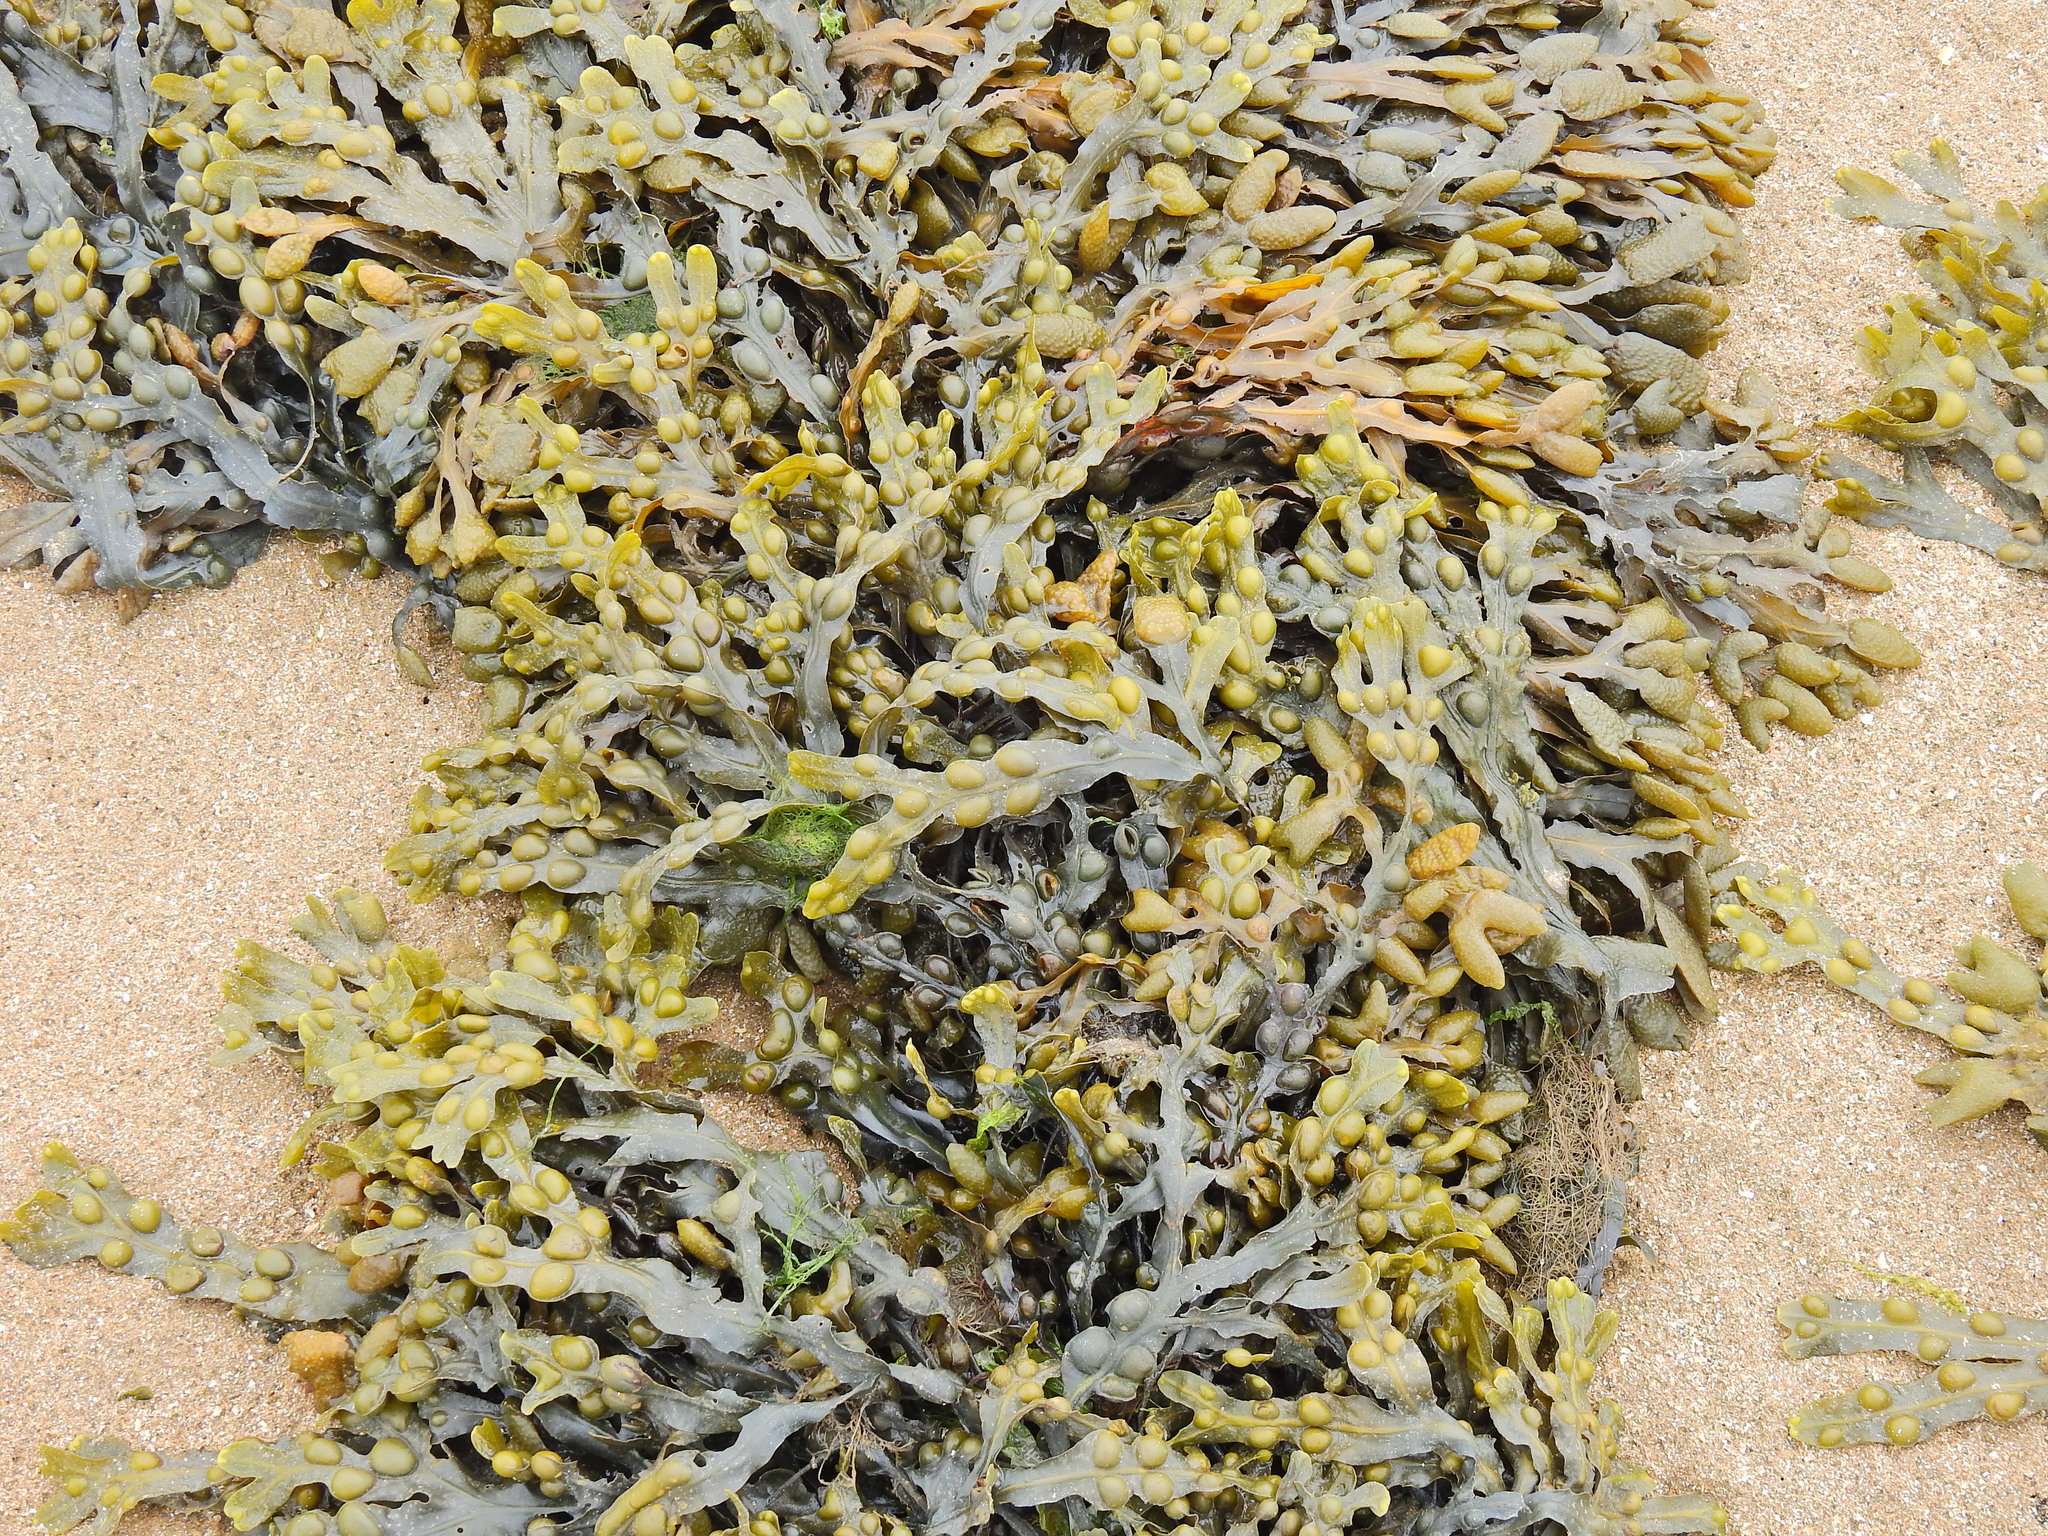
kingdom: Chromista
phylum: Ochrophyta
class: Phaeophyceae
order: Fucales
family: Fucaceae
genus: Fucus
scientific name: Fucus vesiculosus
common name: Bladder wrack
